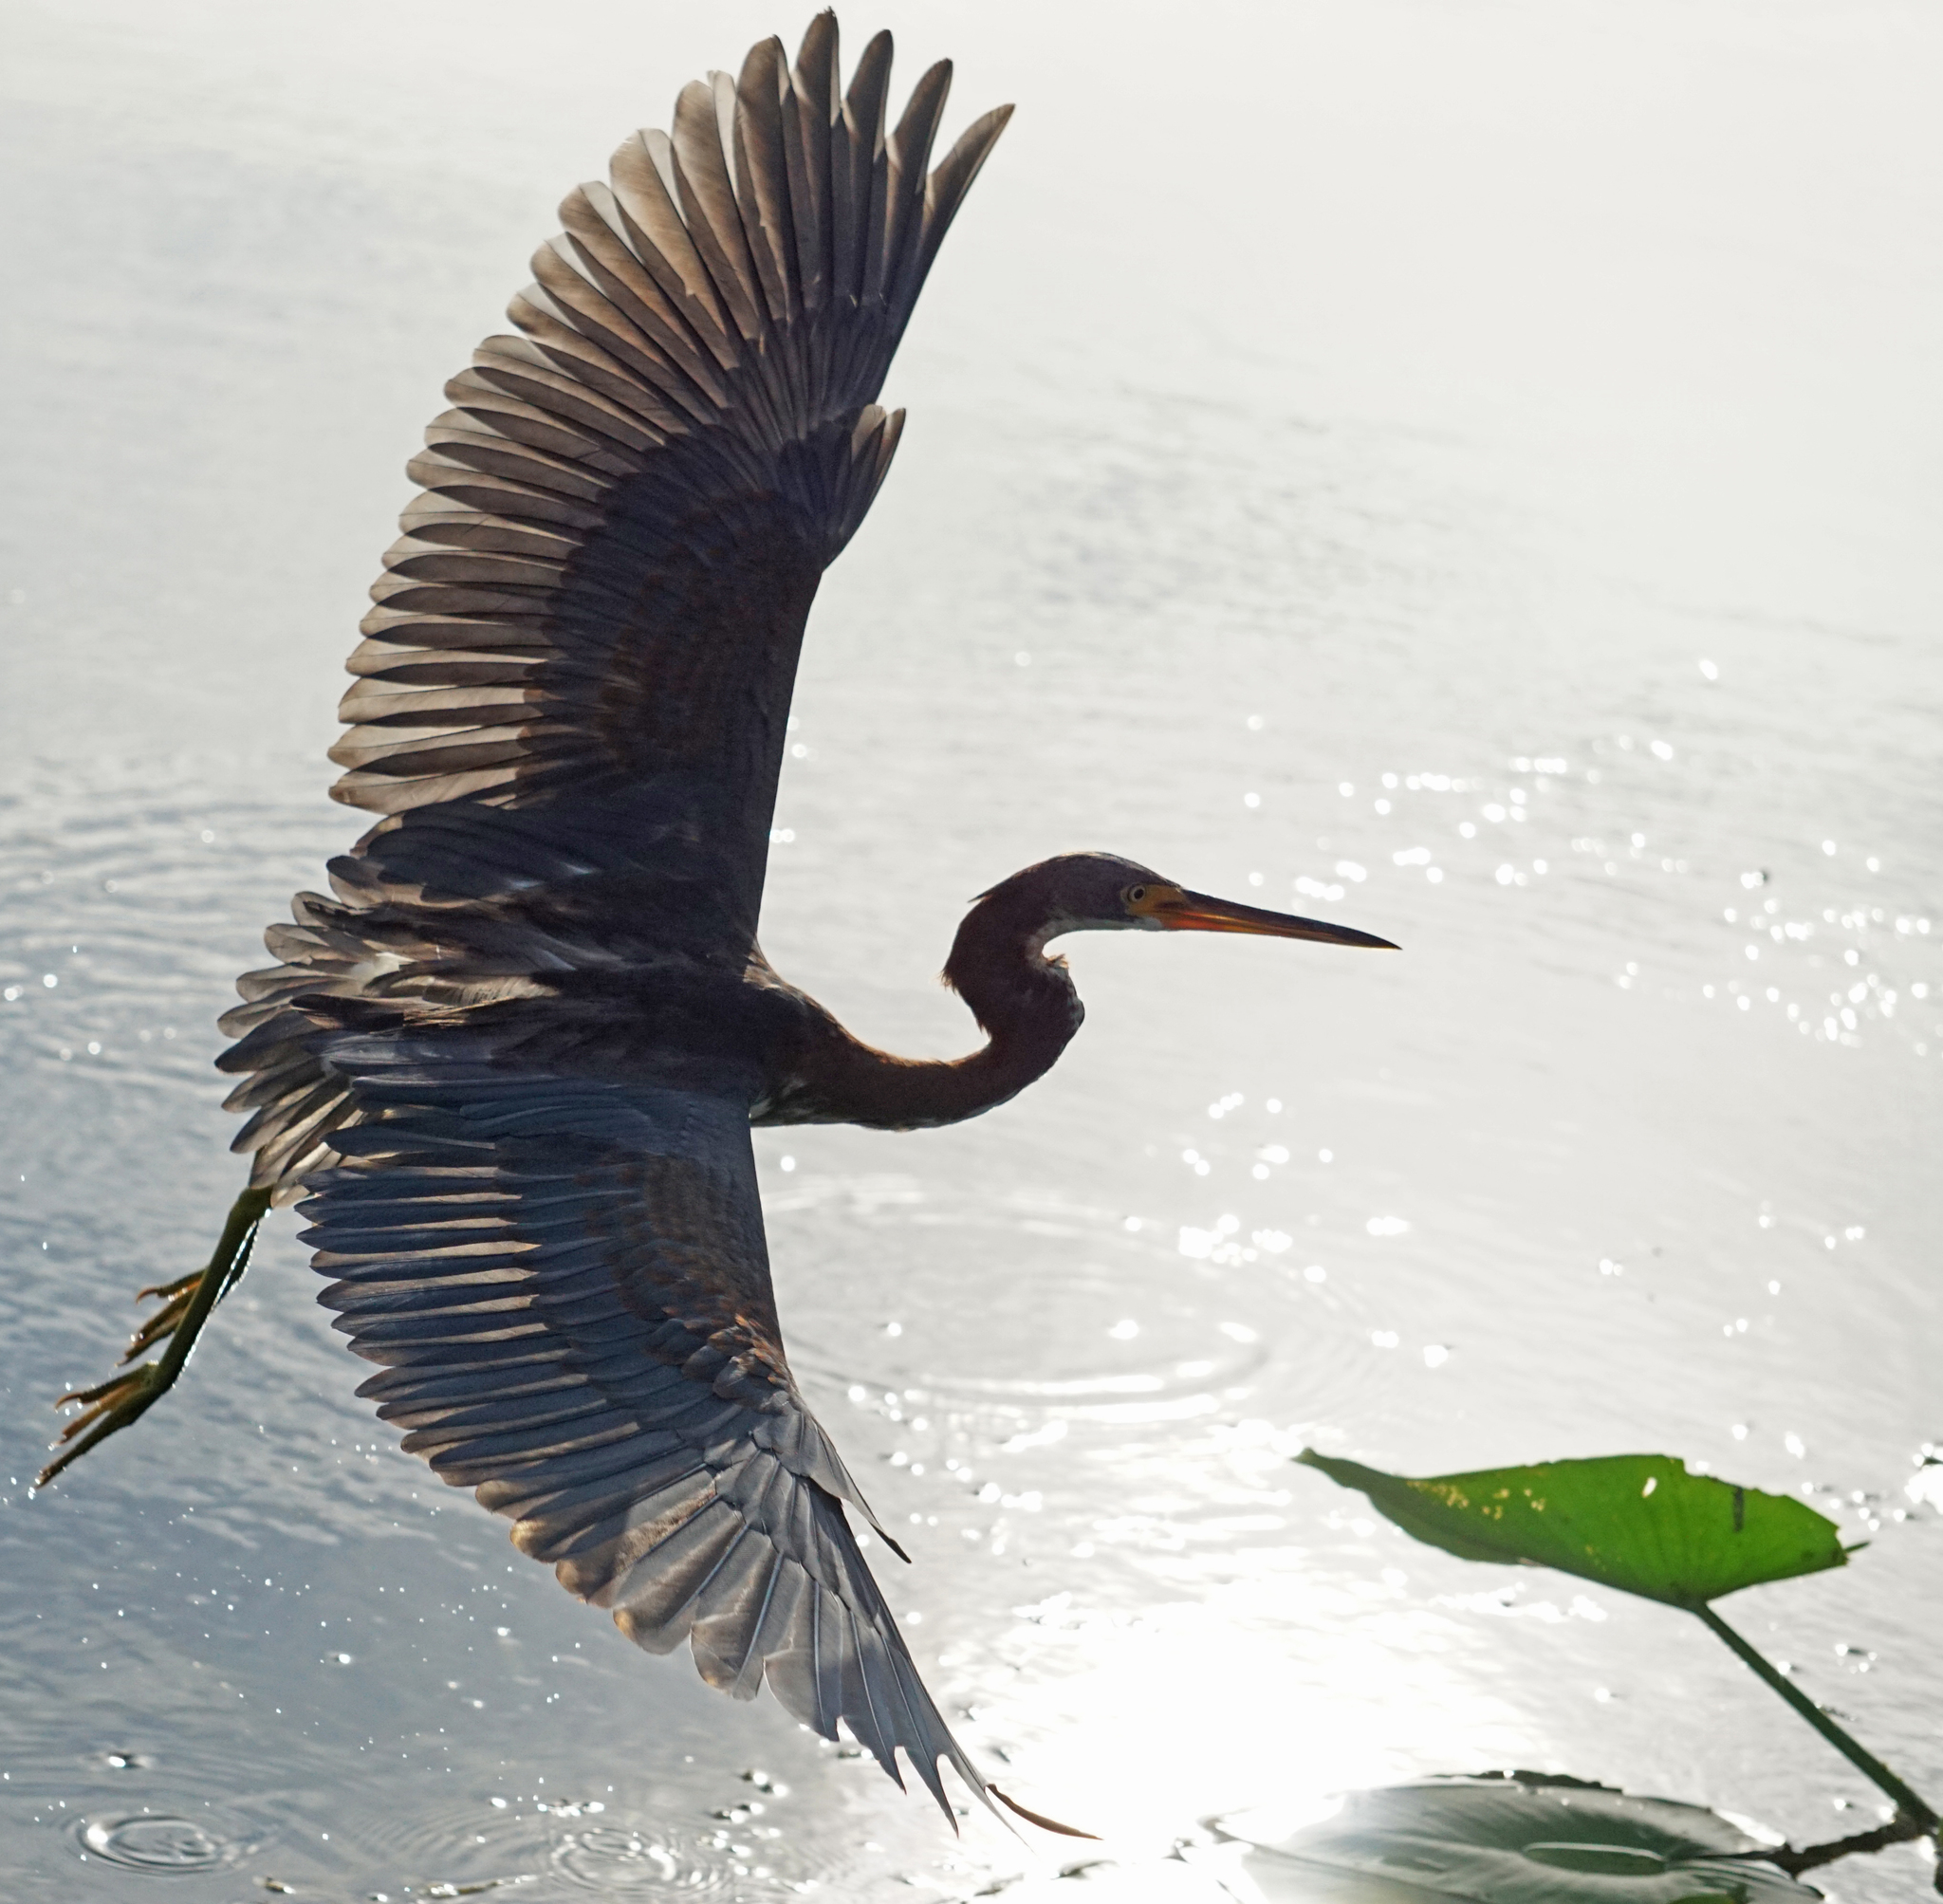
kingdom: Animalia
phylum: Chordata
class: Aves
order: Pelecaniformes
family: Ardeidae
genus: Egretta
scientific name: Egretta tricolor
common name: Tricolored heron
